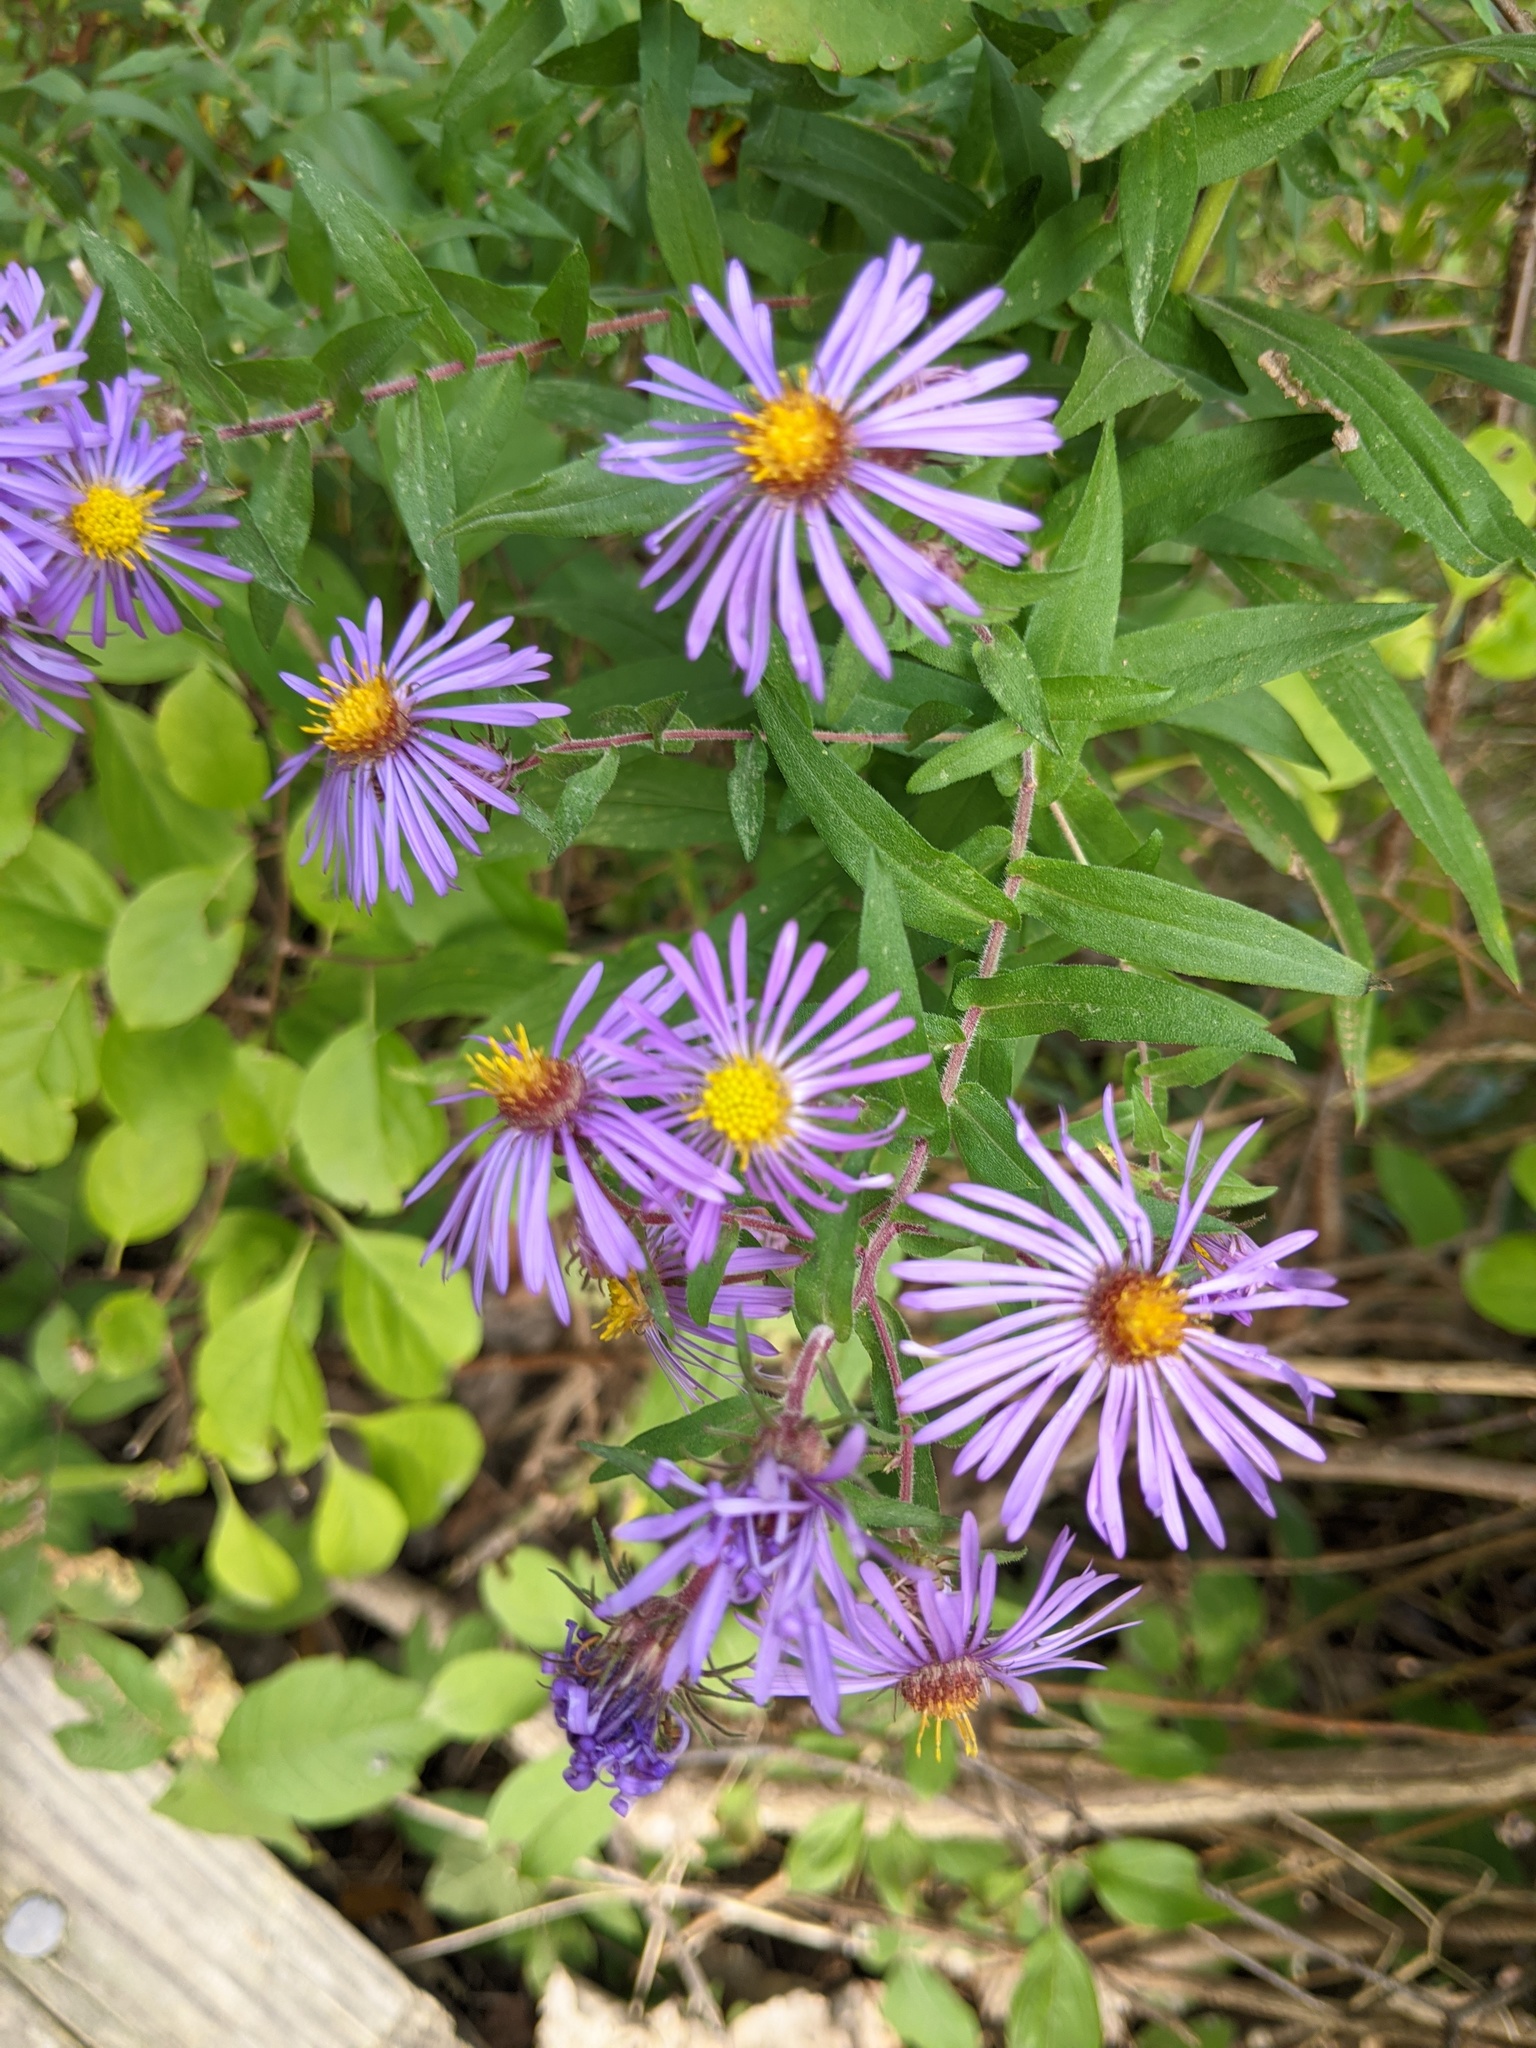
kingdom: Plantae
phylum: Tracheophyta
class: Magnoliopsida
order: Asterales
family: Asteraceae
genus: Symphyotrichum
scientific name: Symphyotrichum novae-angliae
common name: Michaelmas daisy
